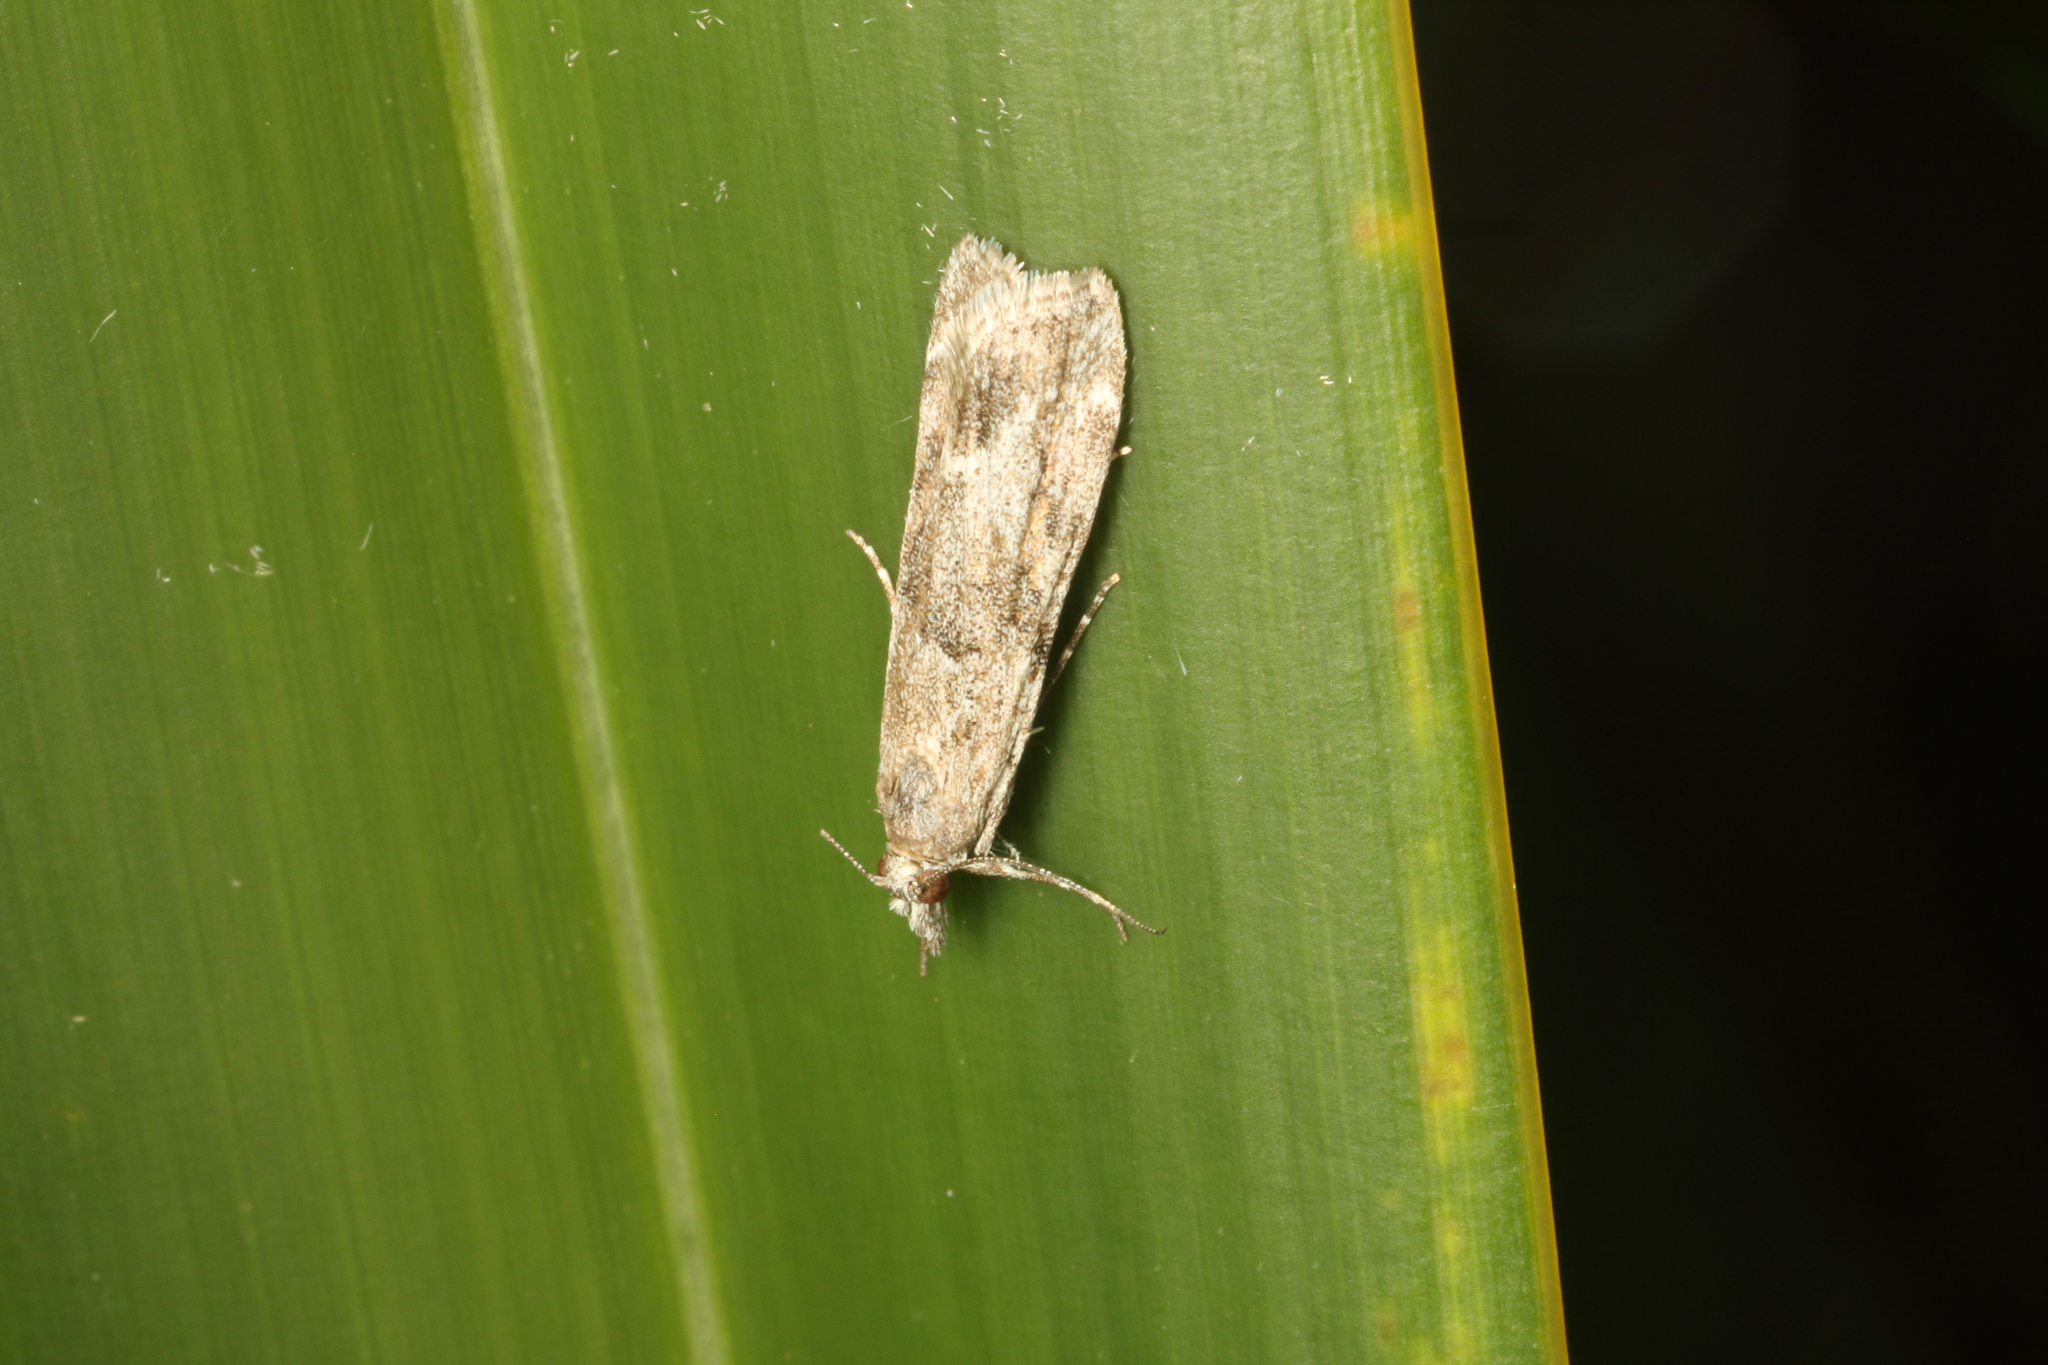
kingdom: Animalia
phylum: Arthropoda
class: Insecta
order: Lepidoptera
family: Crambidae
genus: Eudonia
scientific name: Eudonia rakaiensis
